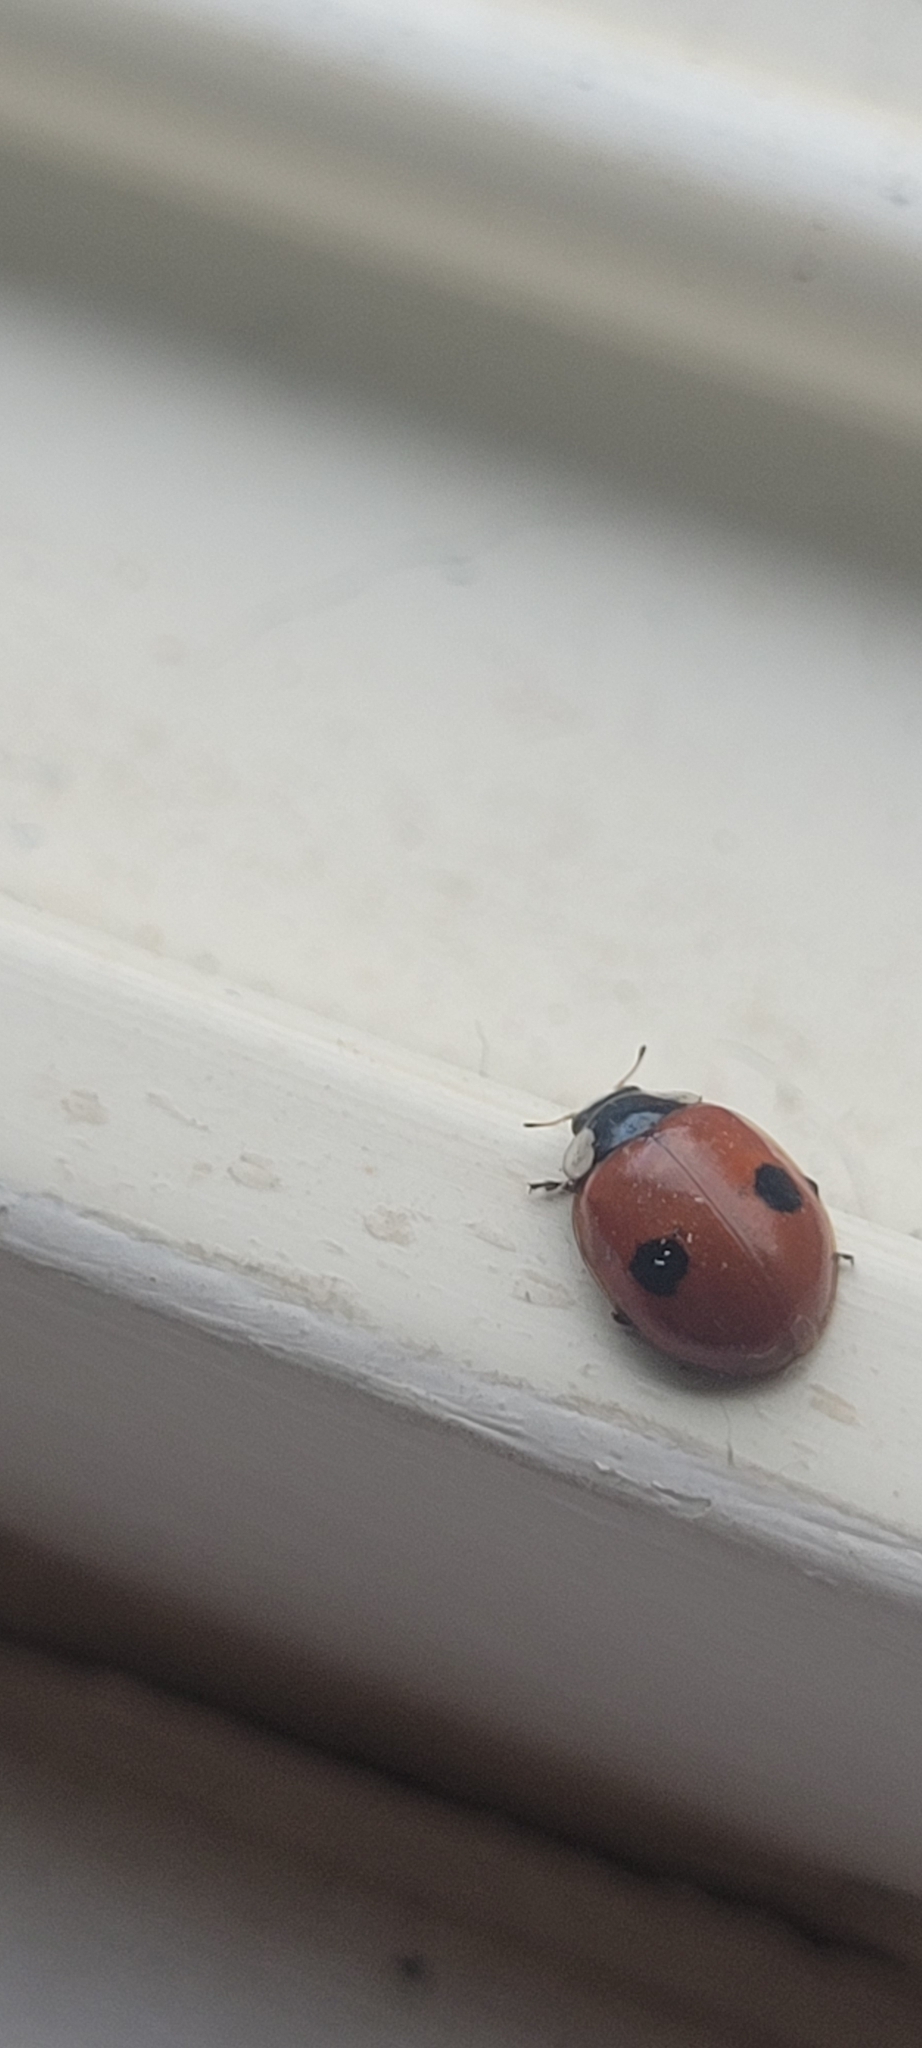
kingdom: Animalia
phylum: Arthropoda
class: Insecta
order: Coleoptera
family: Coccinellidae
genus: Adalia
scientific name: Adalia bipunctata
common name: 2-spot ladybird
